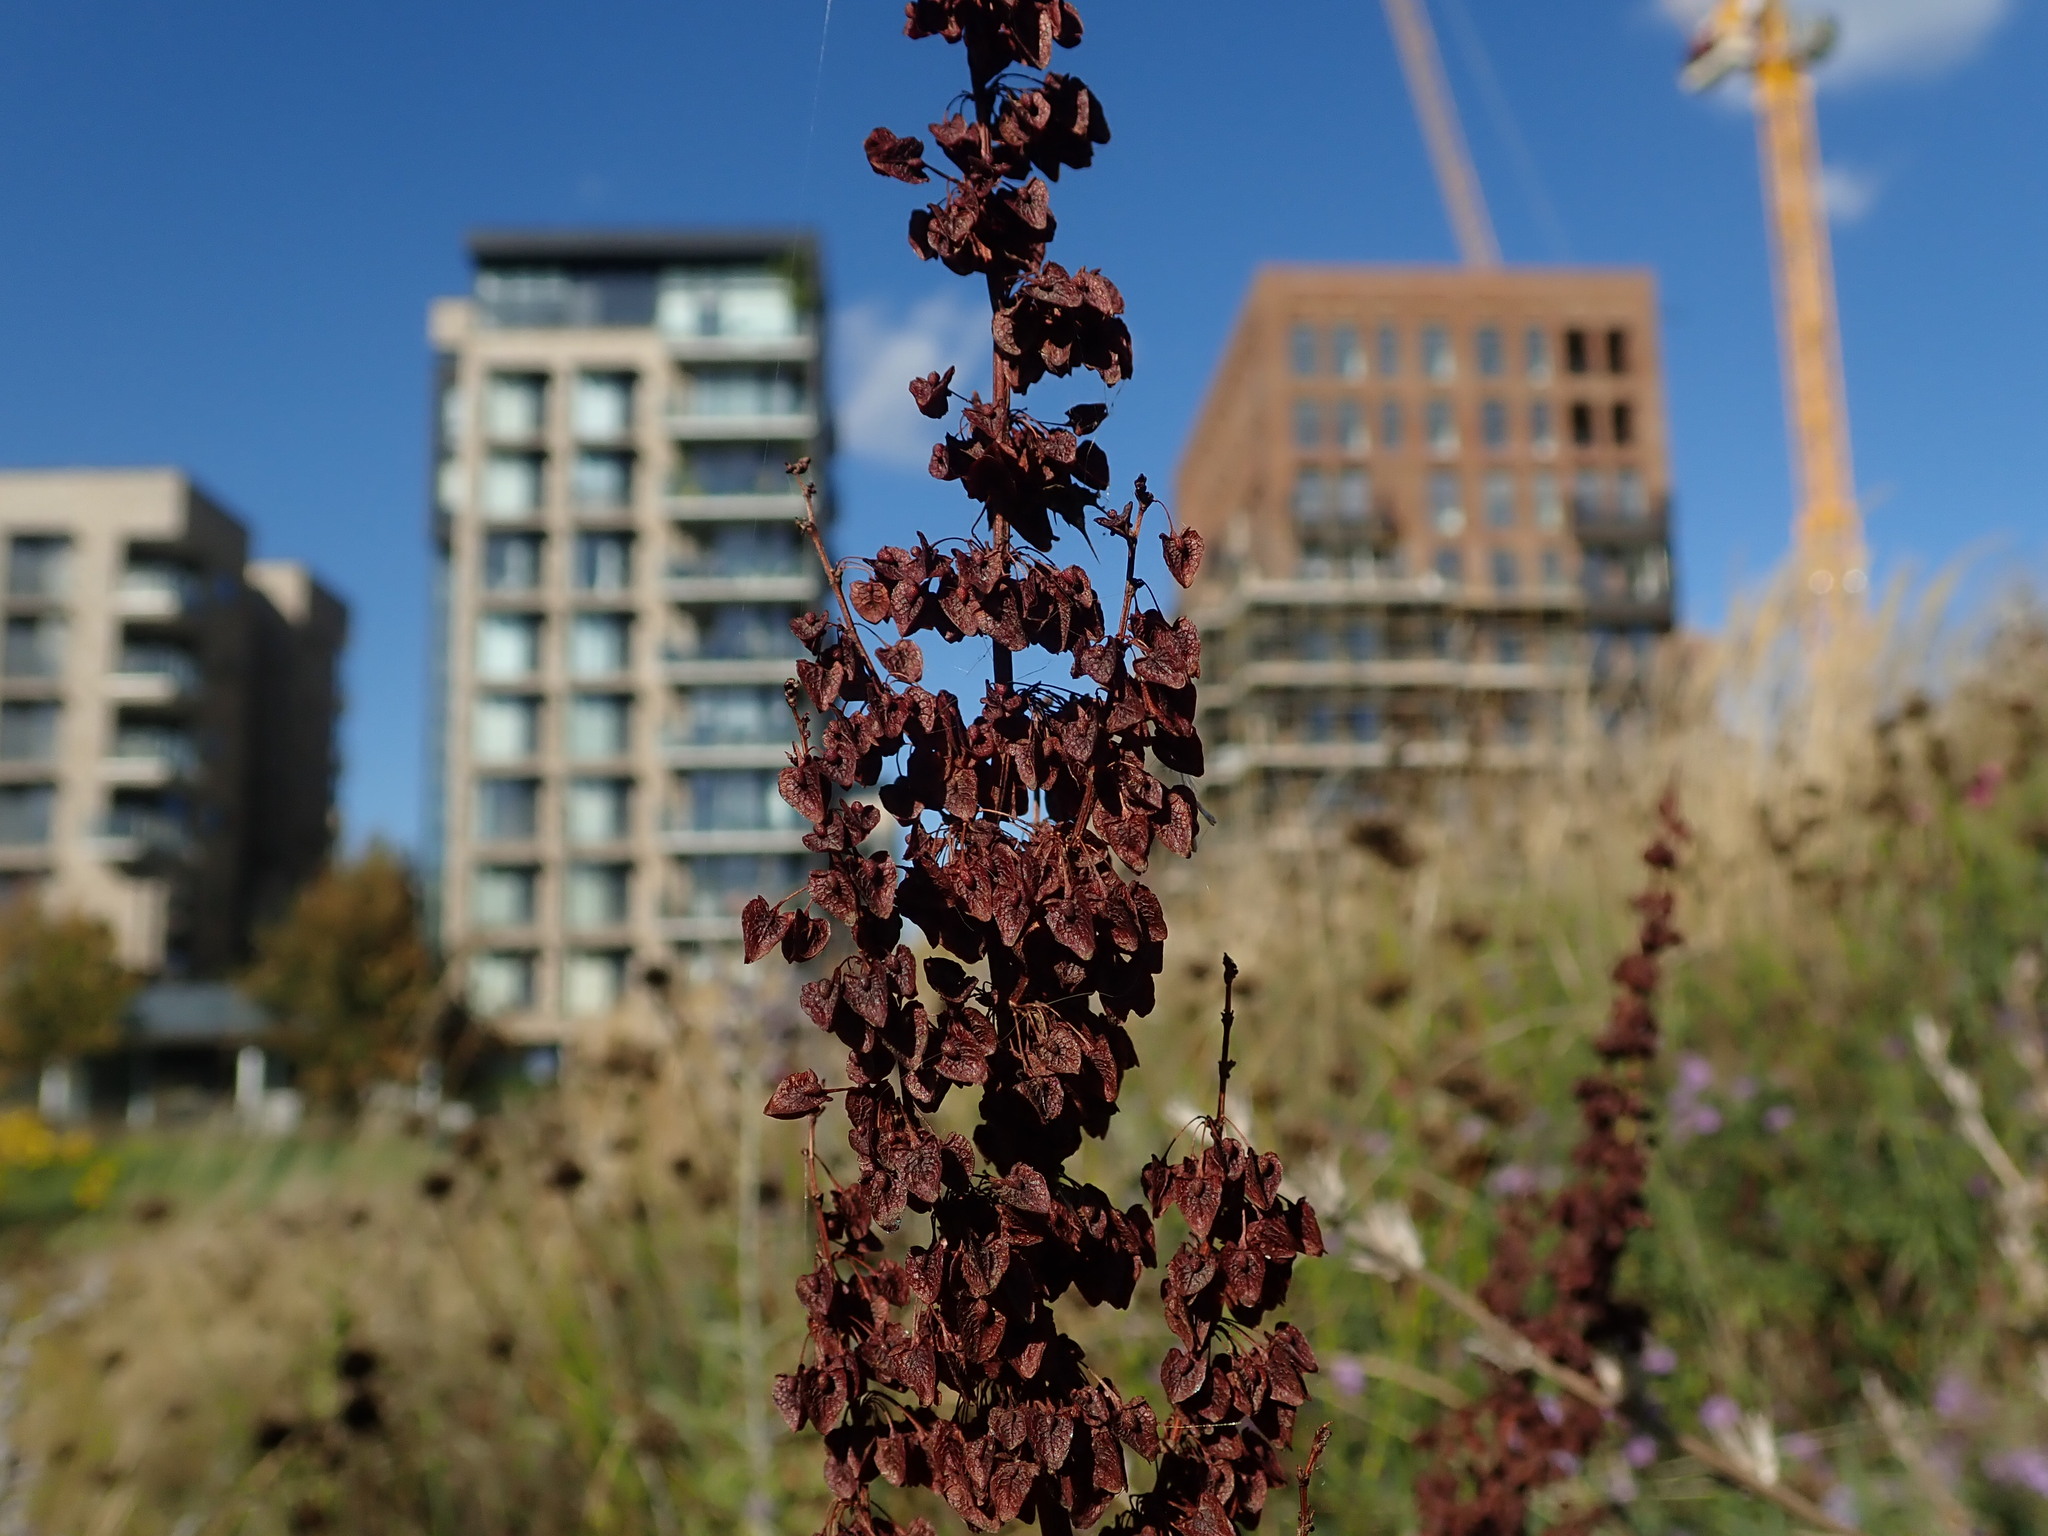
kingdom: Plantae
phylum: Tracheophyta
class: Magnoliopsida
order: Caryophyllales
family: Polygonaceae
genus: Rumex
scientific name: Rumex crispus
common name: Curled dock
